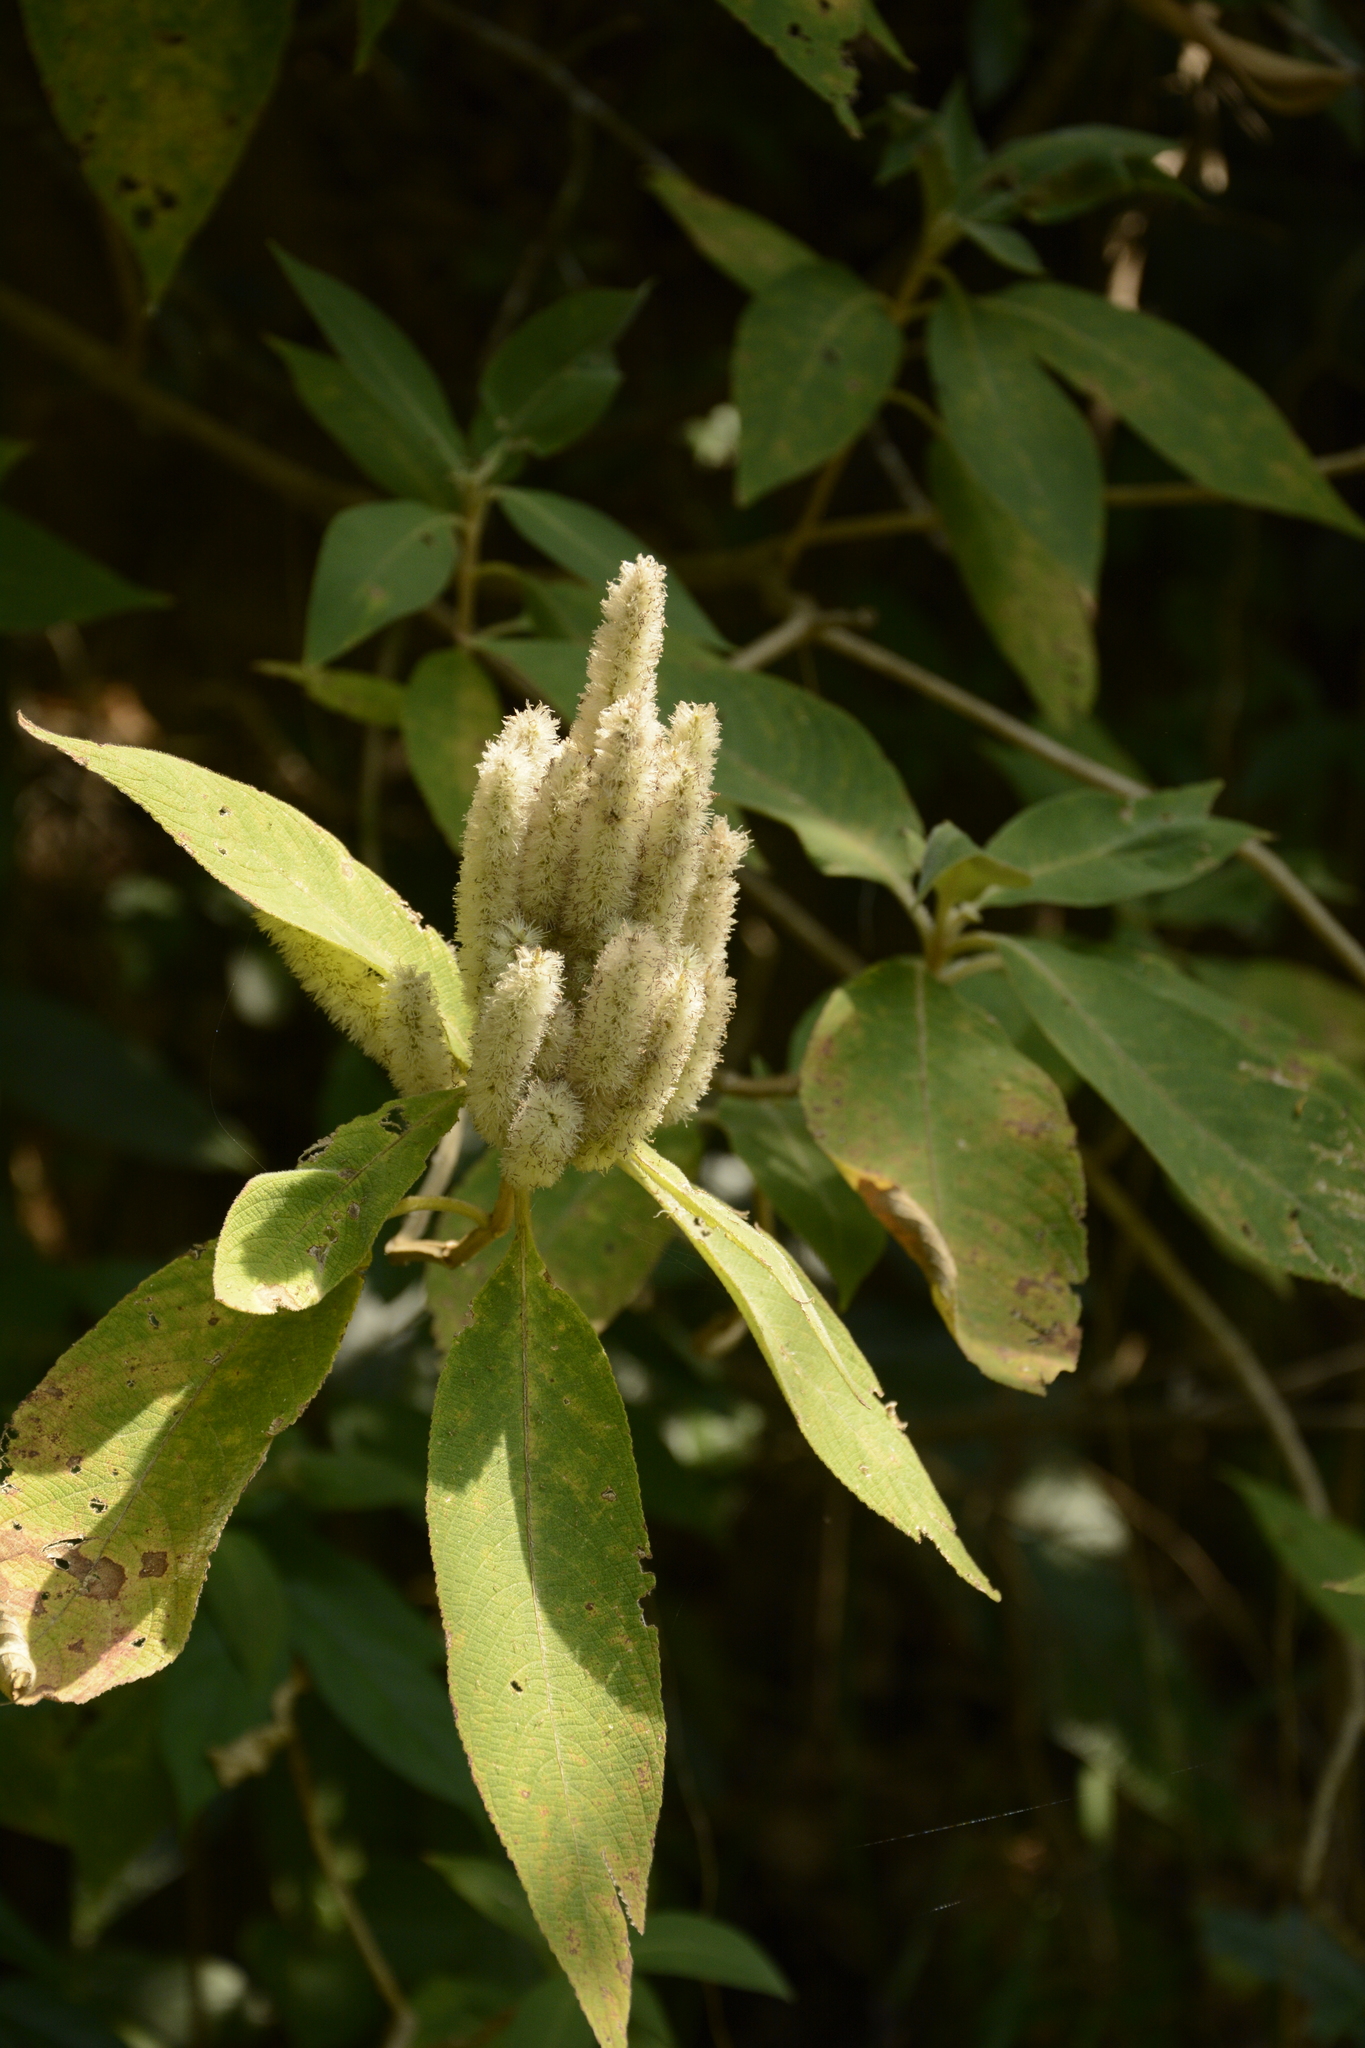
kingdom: Plantae
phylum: Tracheophyta
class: Magnoliopsida
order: Lamiales
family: Lamiaceae
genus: Colebrookea
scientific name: Colebrookea oppositifolia
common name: Indian squirrel tail
